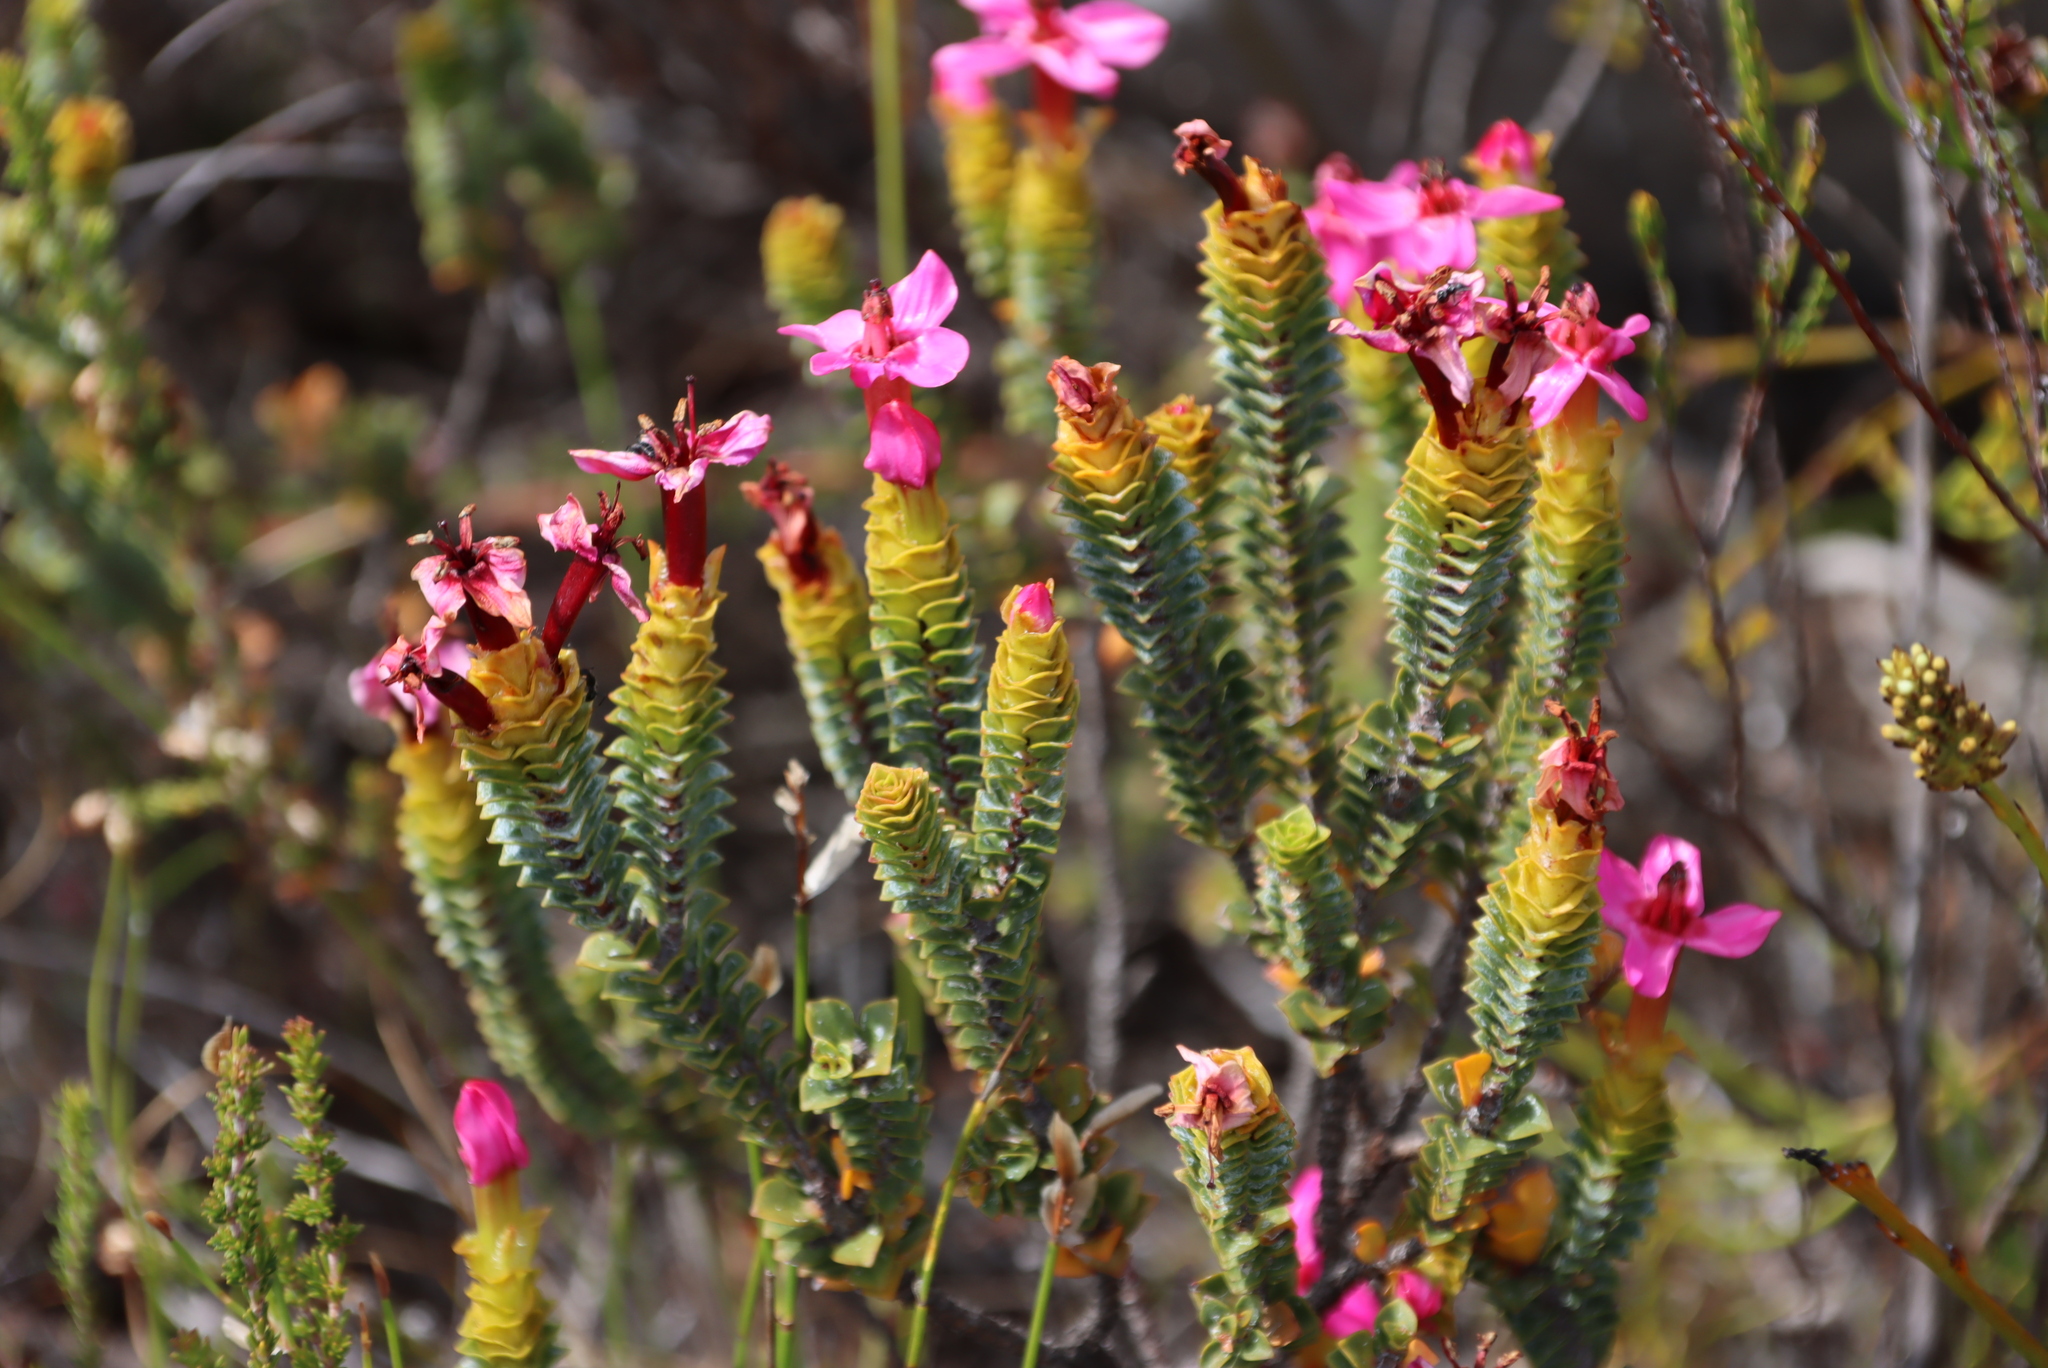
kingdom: Plantae
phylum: Tracheophyta
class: Magnoliopsida
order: Myrtales
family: Penaeaceae
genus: Saltera
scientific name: Saltera sarcocolla
